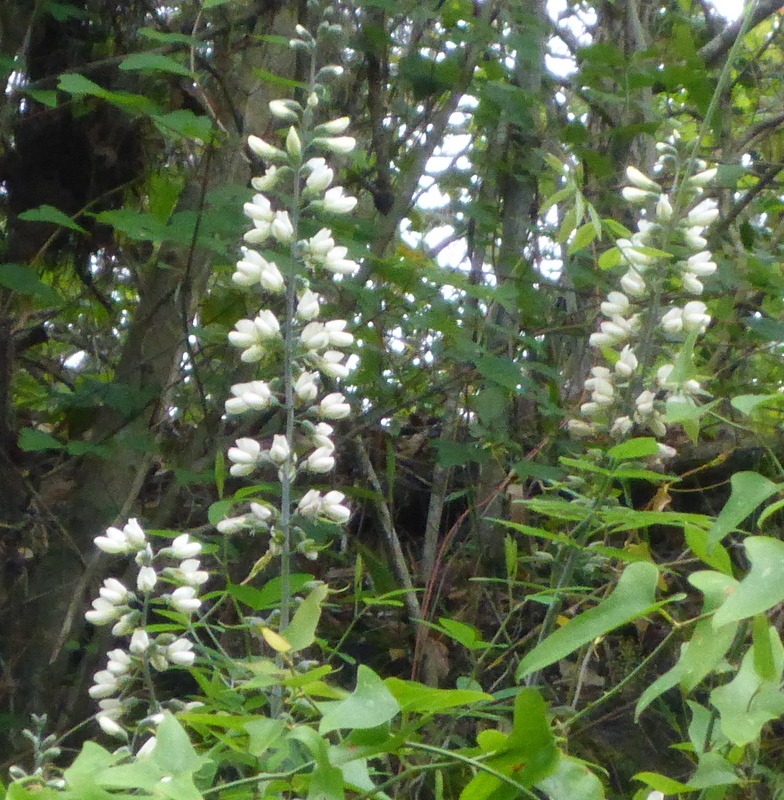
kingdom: Plantae
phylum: Tracheophyta
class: Magnoliopsida
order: Fabales
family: Fabaceae
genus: Baptisia
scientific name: Baptisia alba
